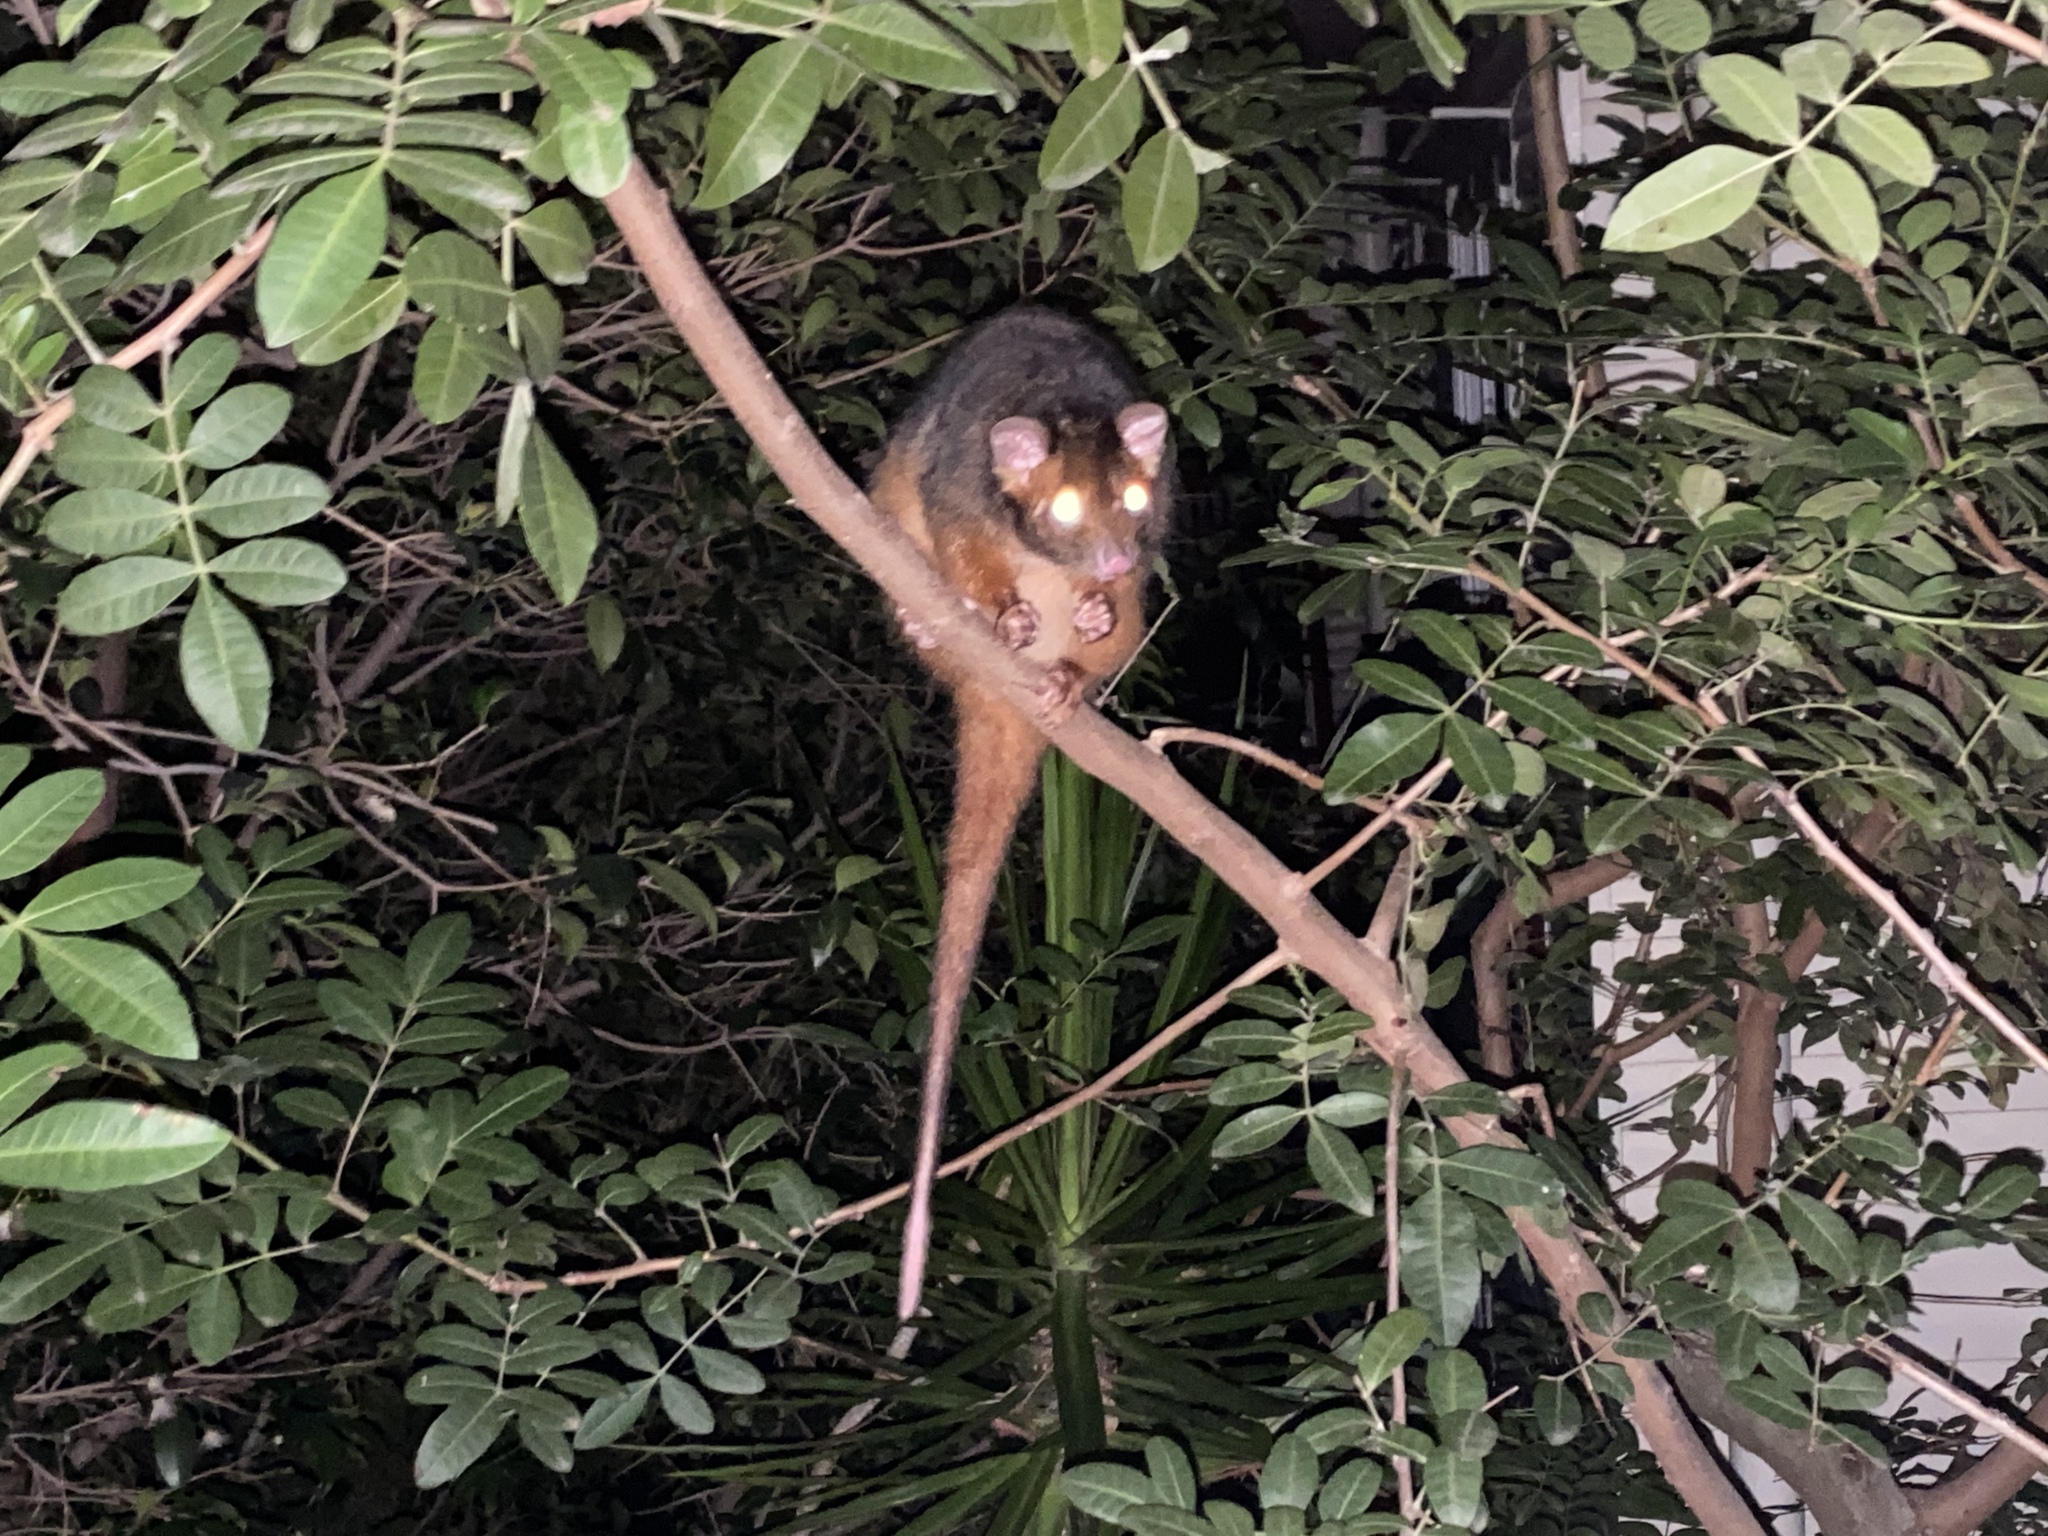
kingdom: Animalia
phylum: Chordata
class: Mammalia
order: Diprotodontia
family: Pseudocheiridae
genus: Pseudocheirus
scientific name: Pseudocheirus peregrinus
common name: Common ringtail possum
